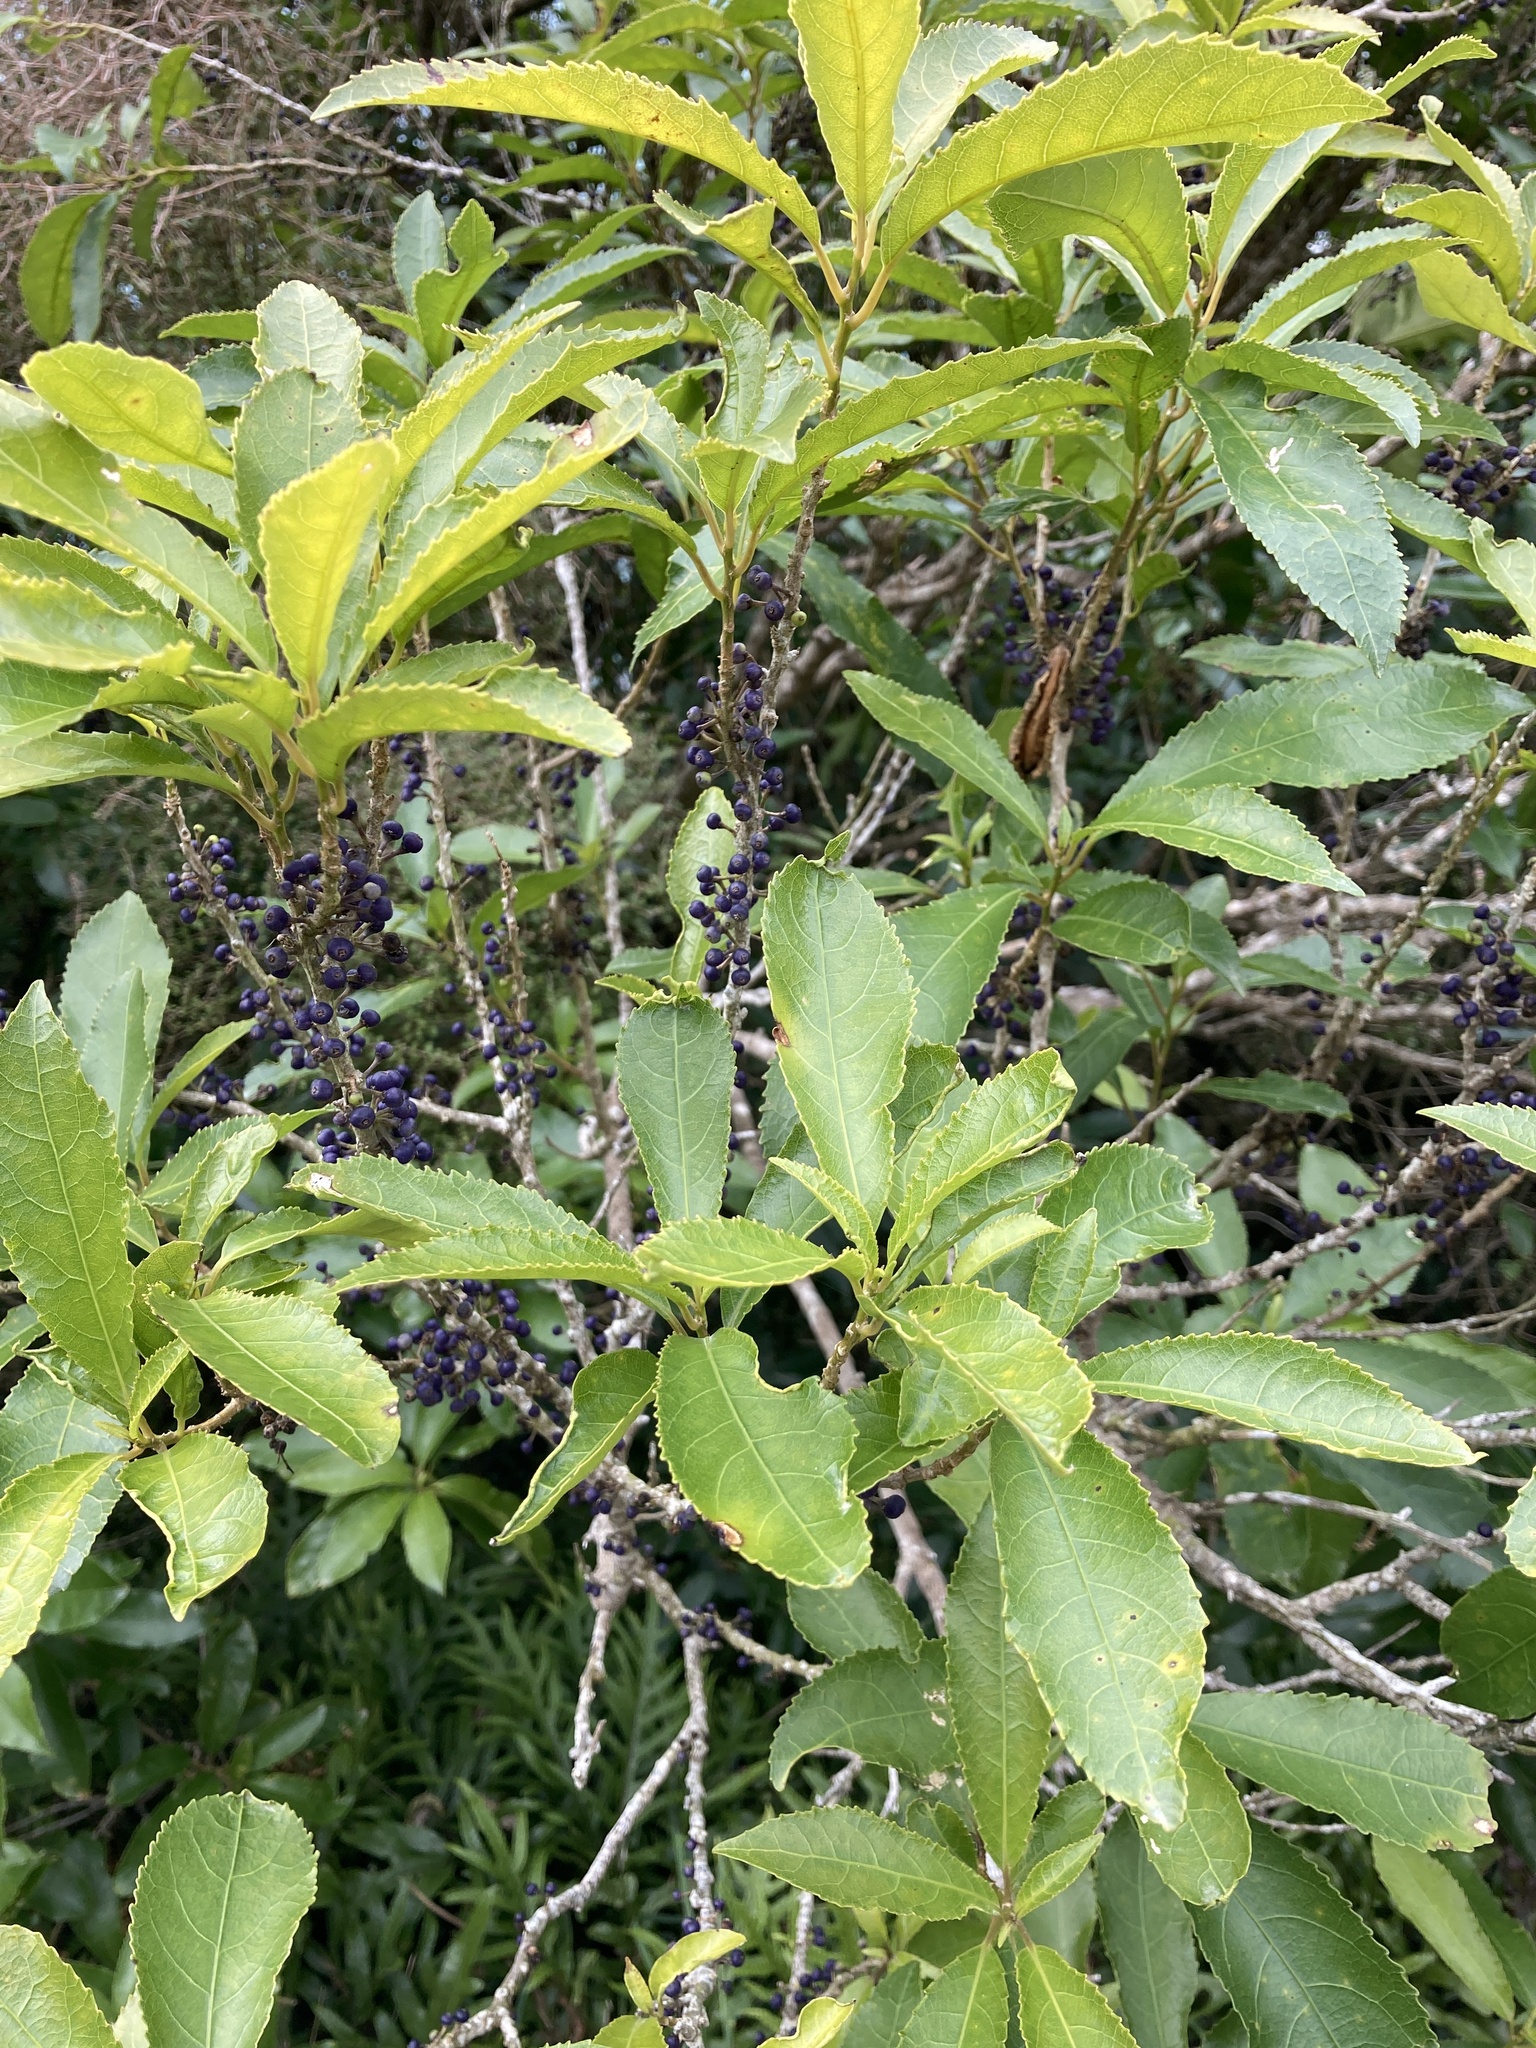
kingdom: Plantae
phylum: Tracheophyta
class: Magnoliopsida
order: Malpighiales
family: Violaceae
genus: Melicytus
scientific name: Melicytus ramiflorus
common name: Mahoe
